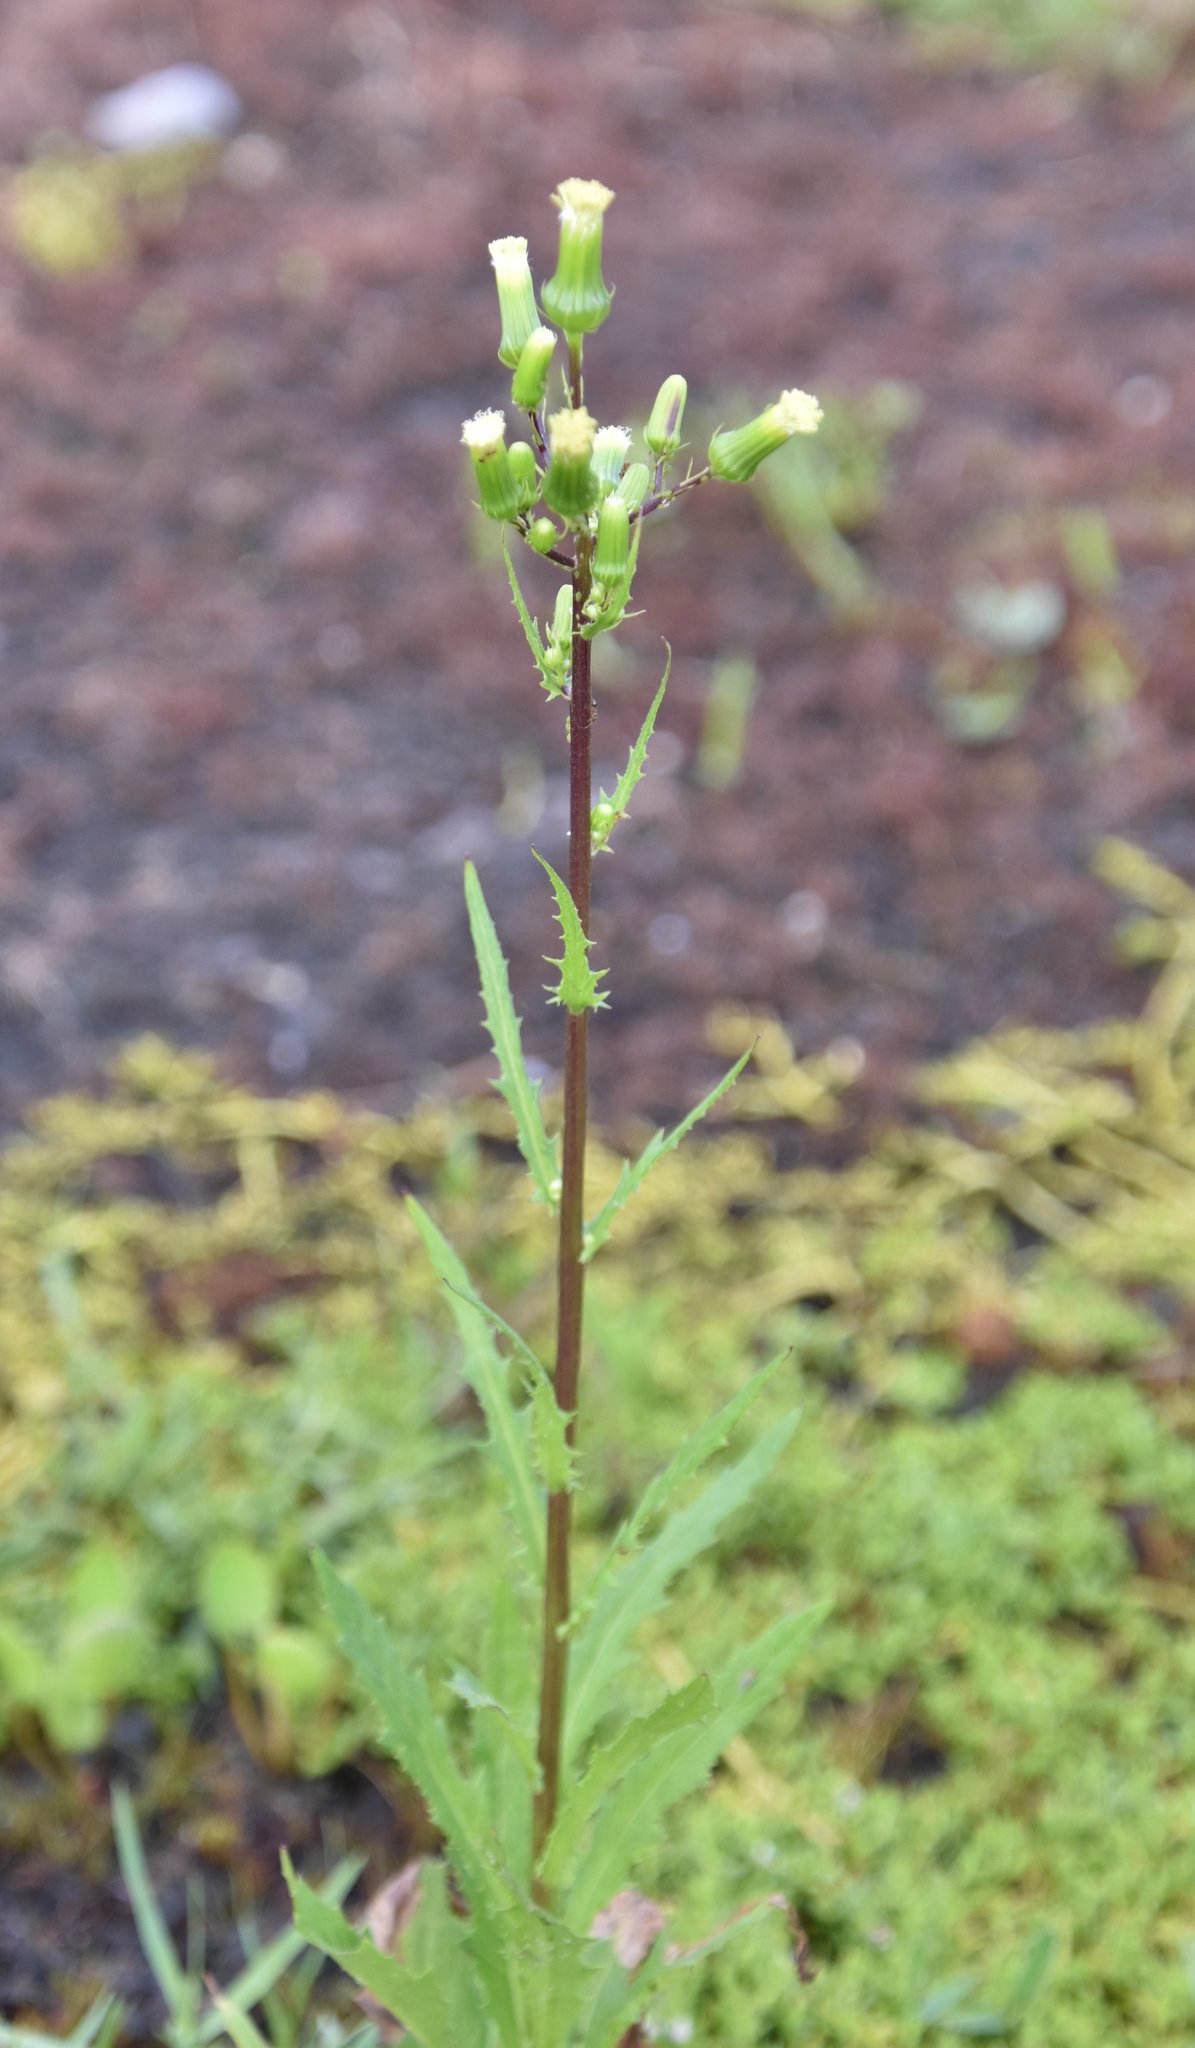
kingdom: Plantae
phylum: Tracheophyta
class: Magnoliopsida
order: Asterales
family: Asteraceae
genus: Erechtites
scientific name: Erechtites hieraciifolius
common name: American burnweed
